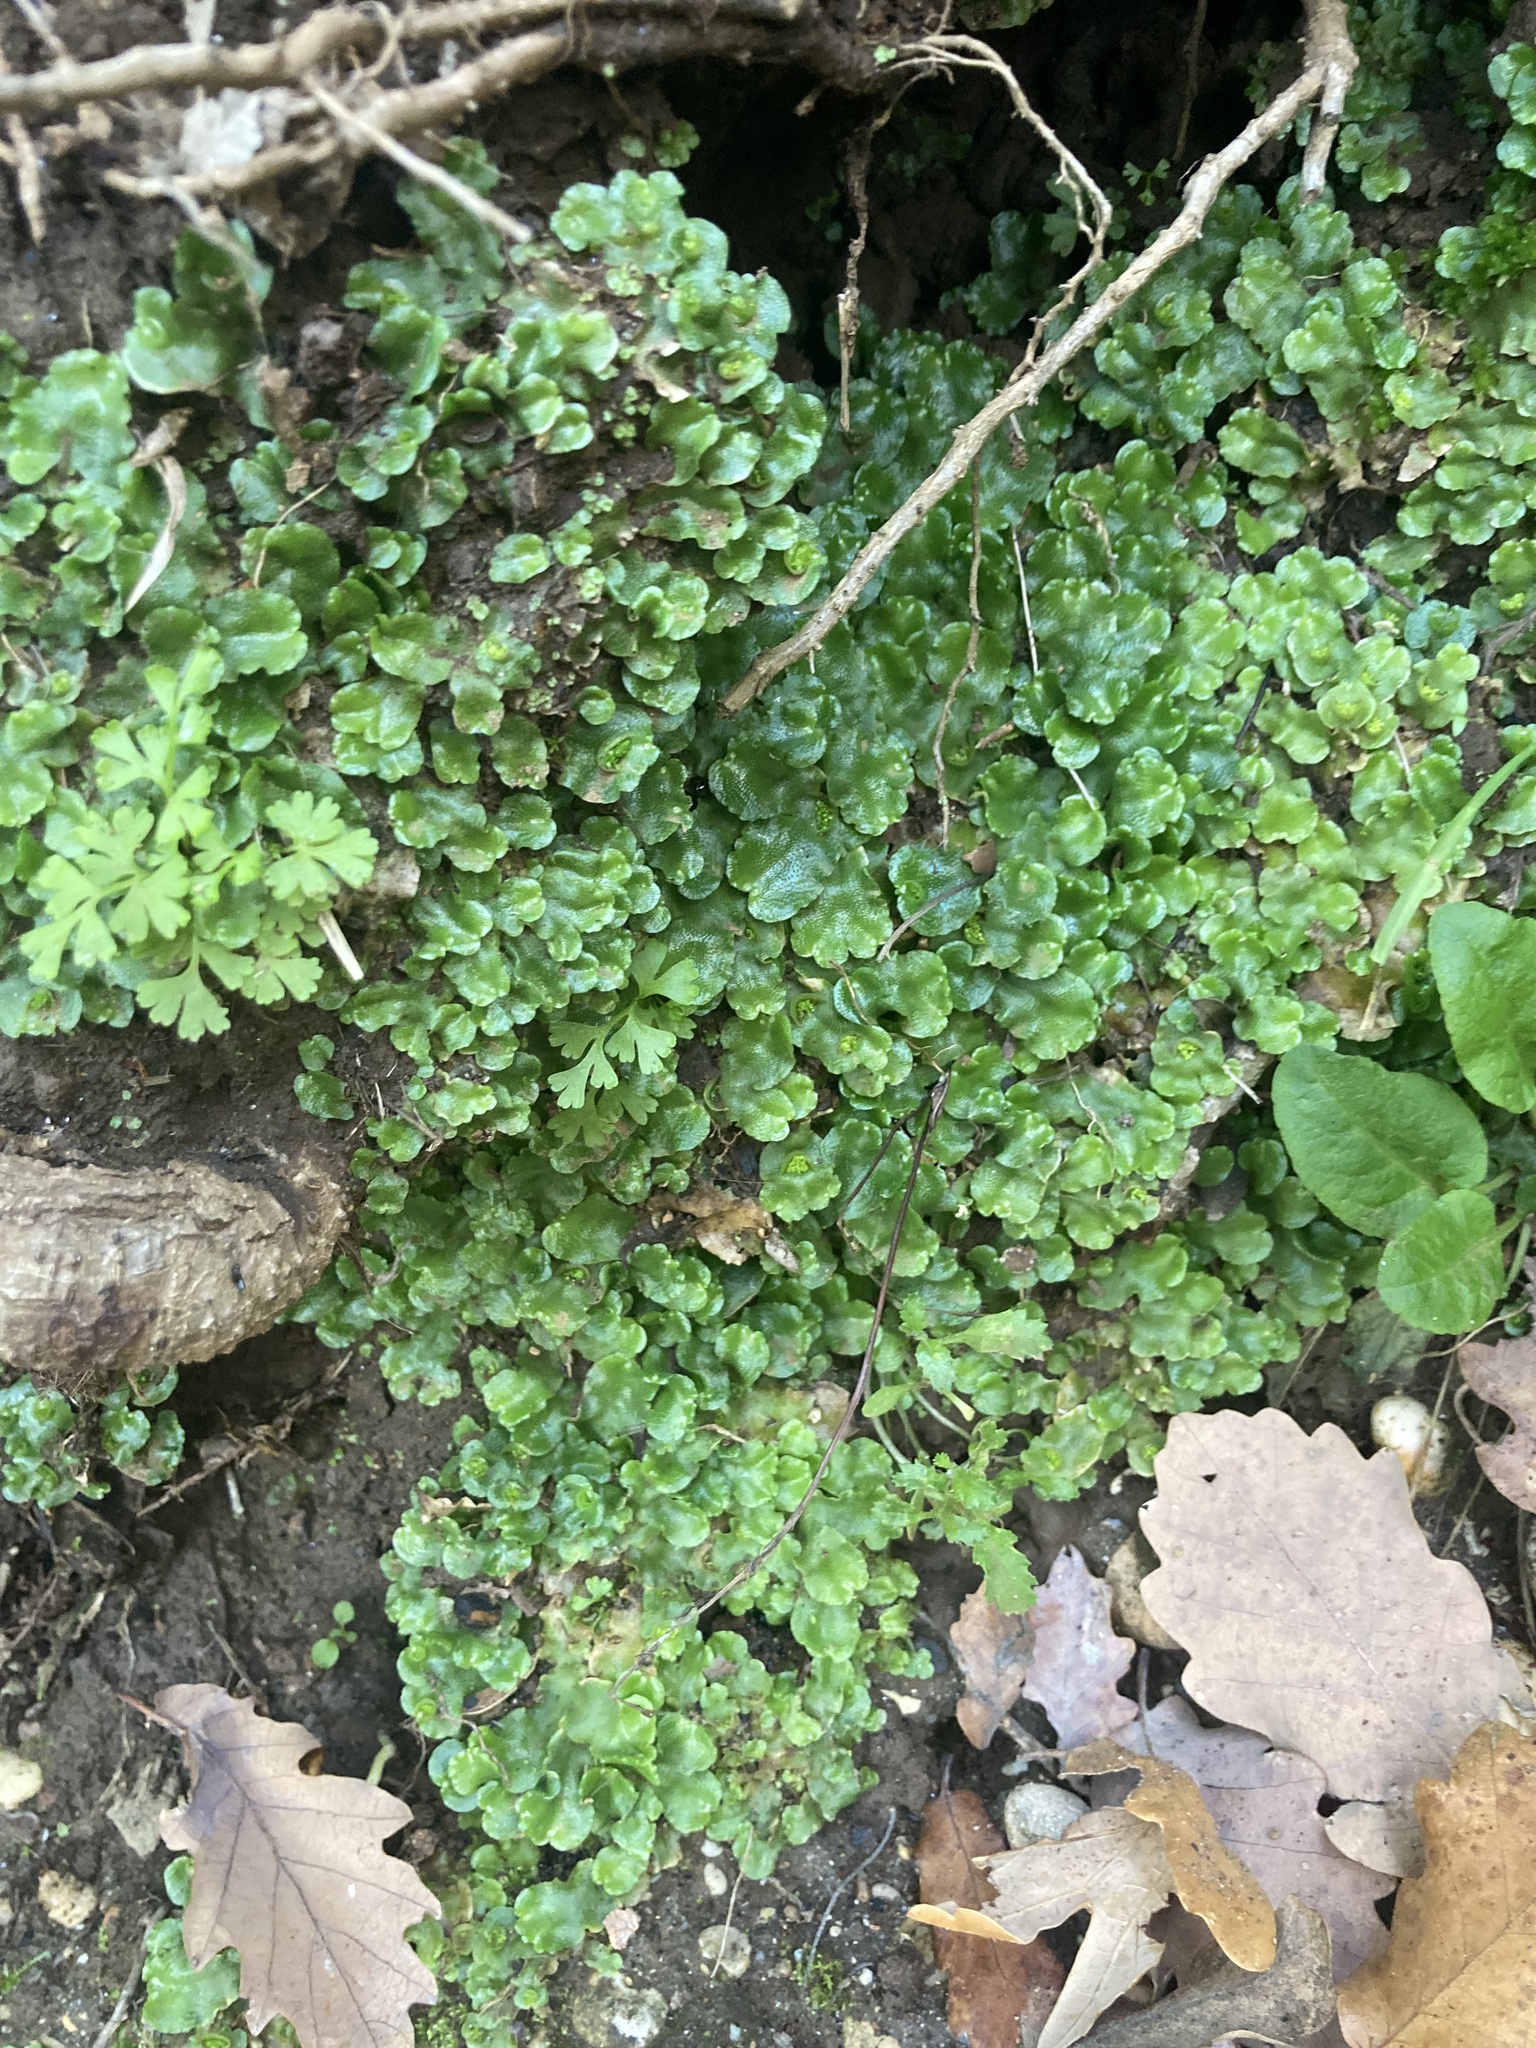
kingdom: Plantae
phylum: Marchantiophyta
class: Marchantiopsida
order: Lunulariales
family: Lunulariaceae
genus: Lunularia
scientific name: Lunularia cruciata
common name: Crescent-cup liverwort
